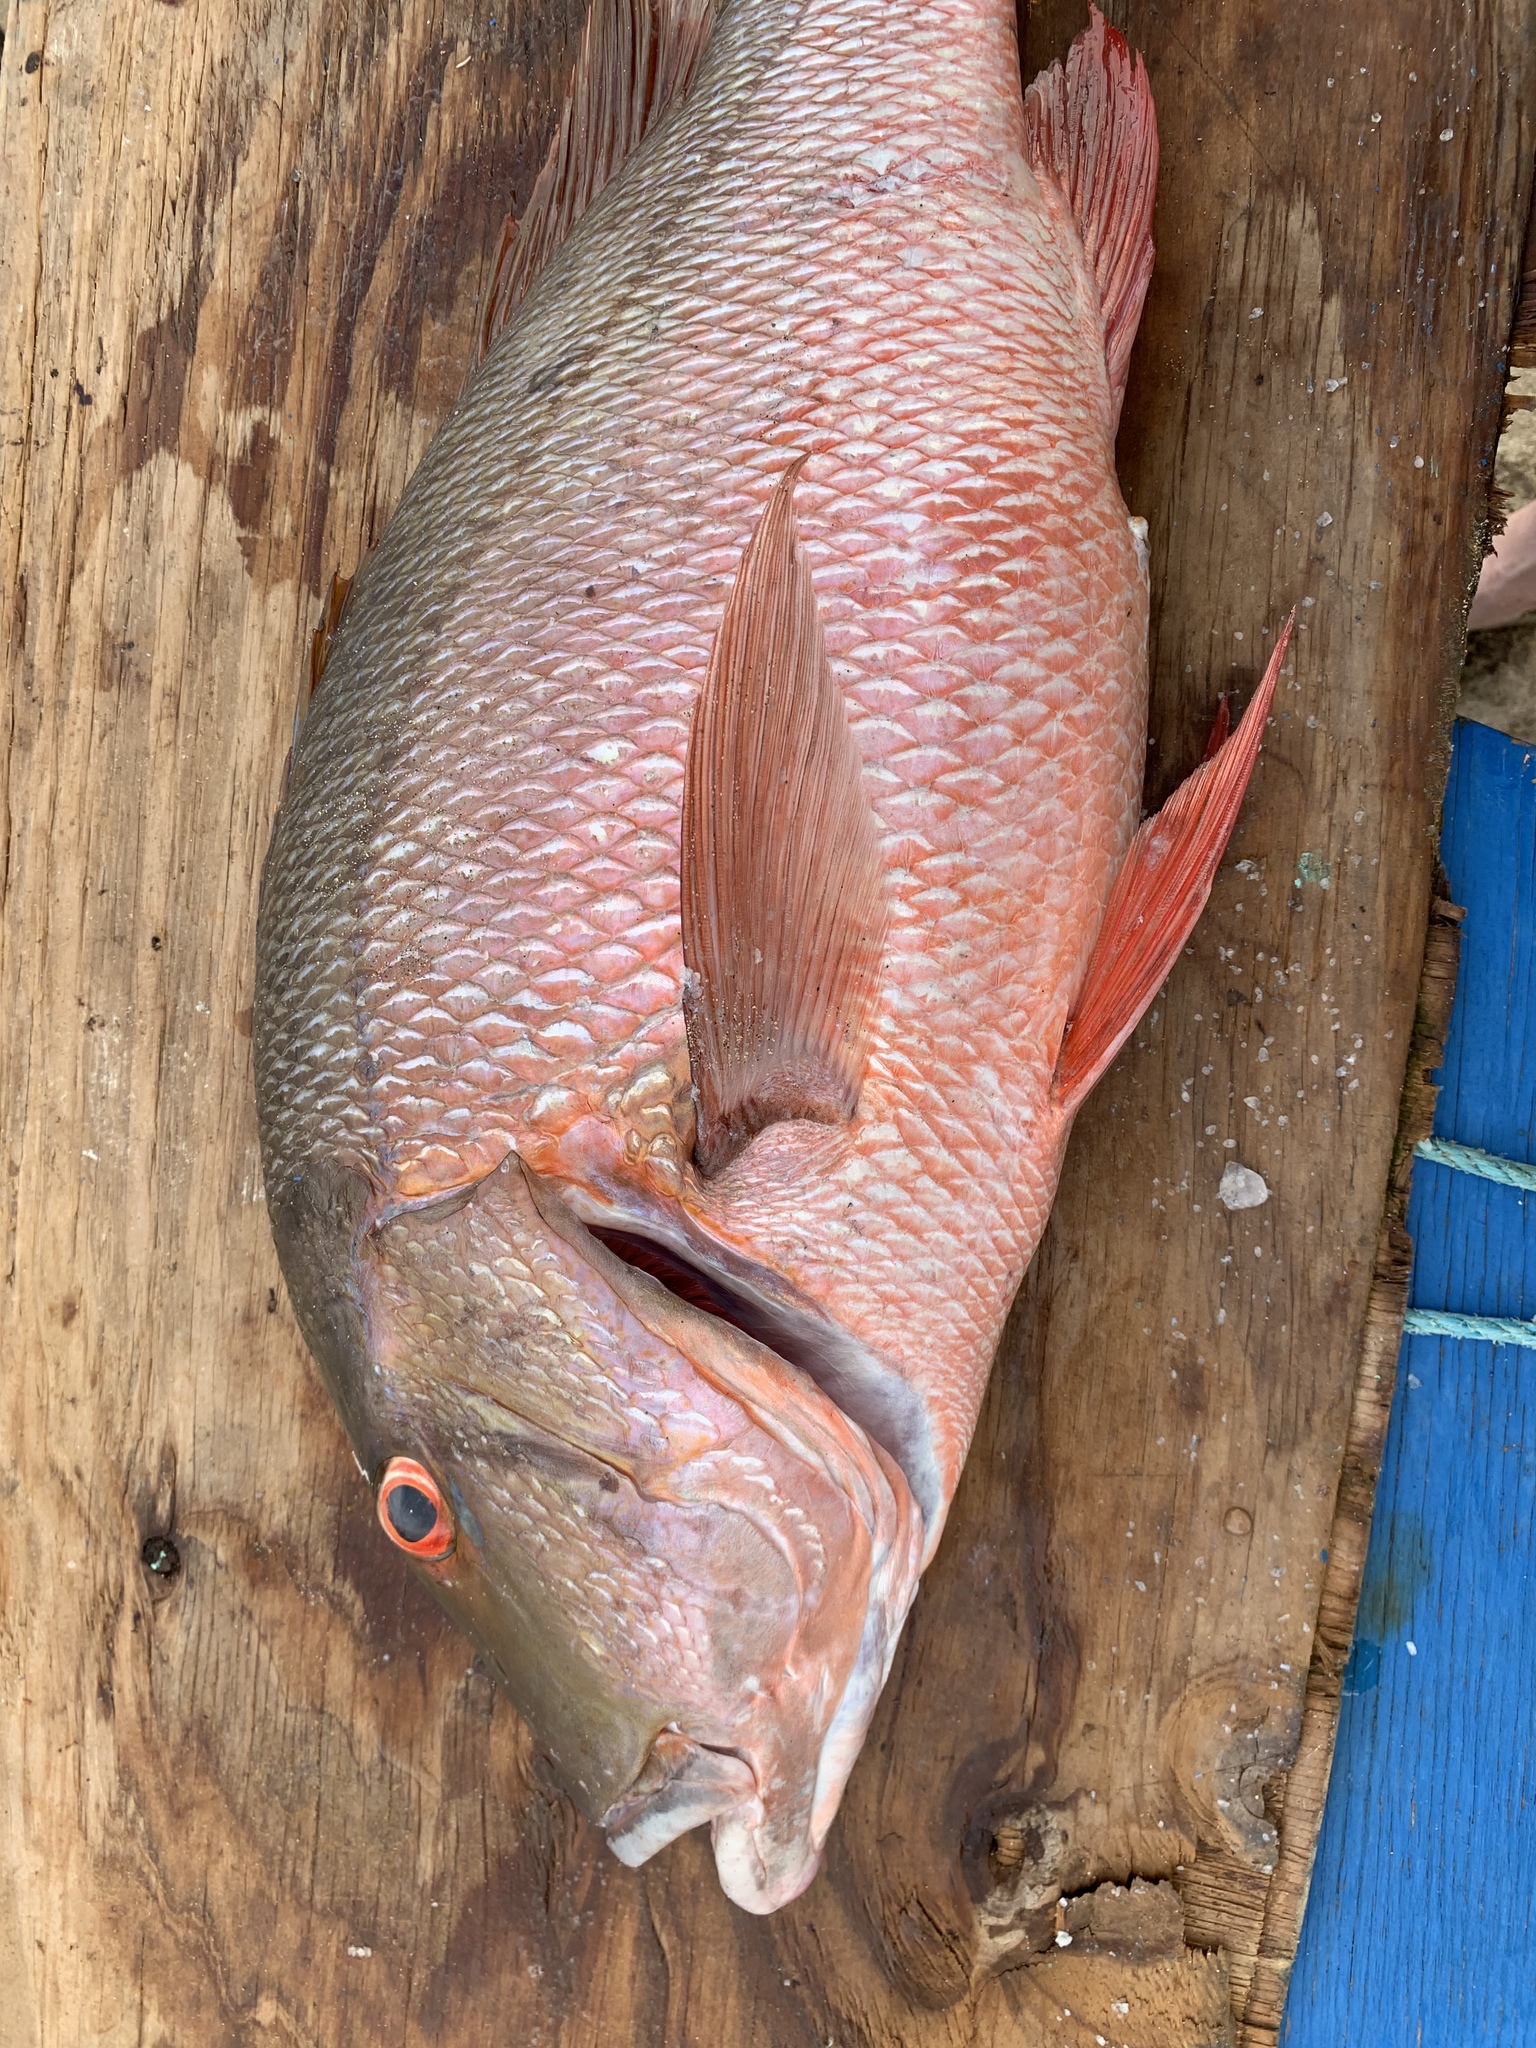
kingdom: Animalia
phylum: Chordata
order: Perciformes
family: Lutjanidae
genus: Lutjanus
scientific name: Lutjanus analis
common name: Mutton snapper
